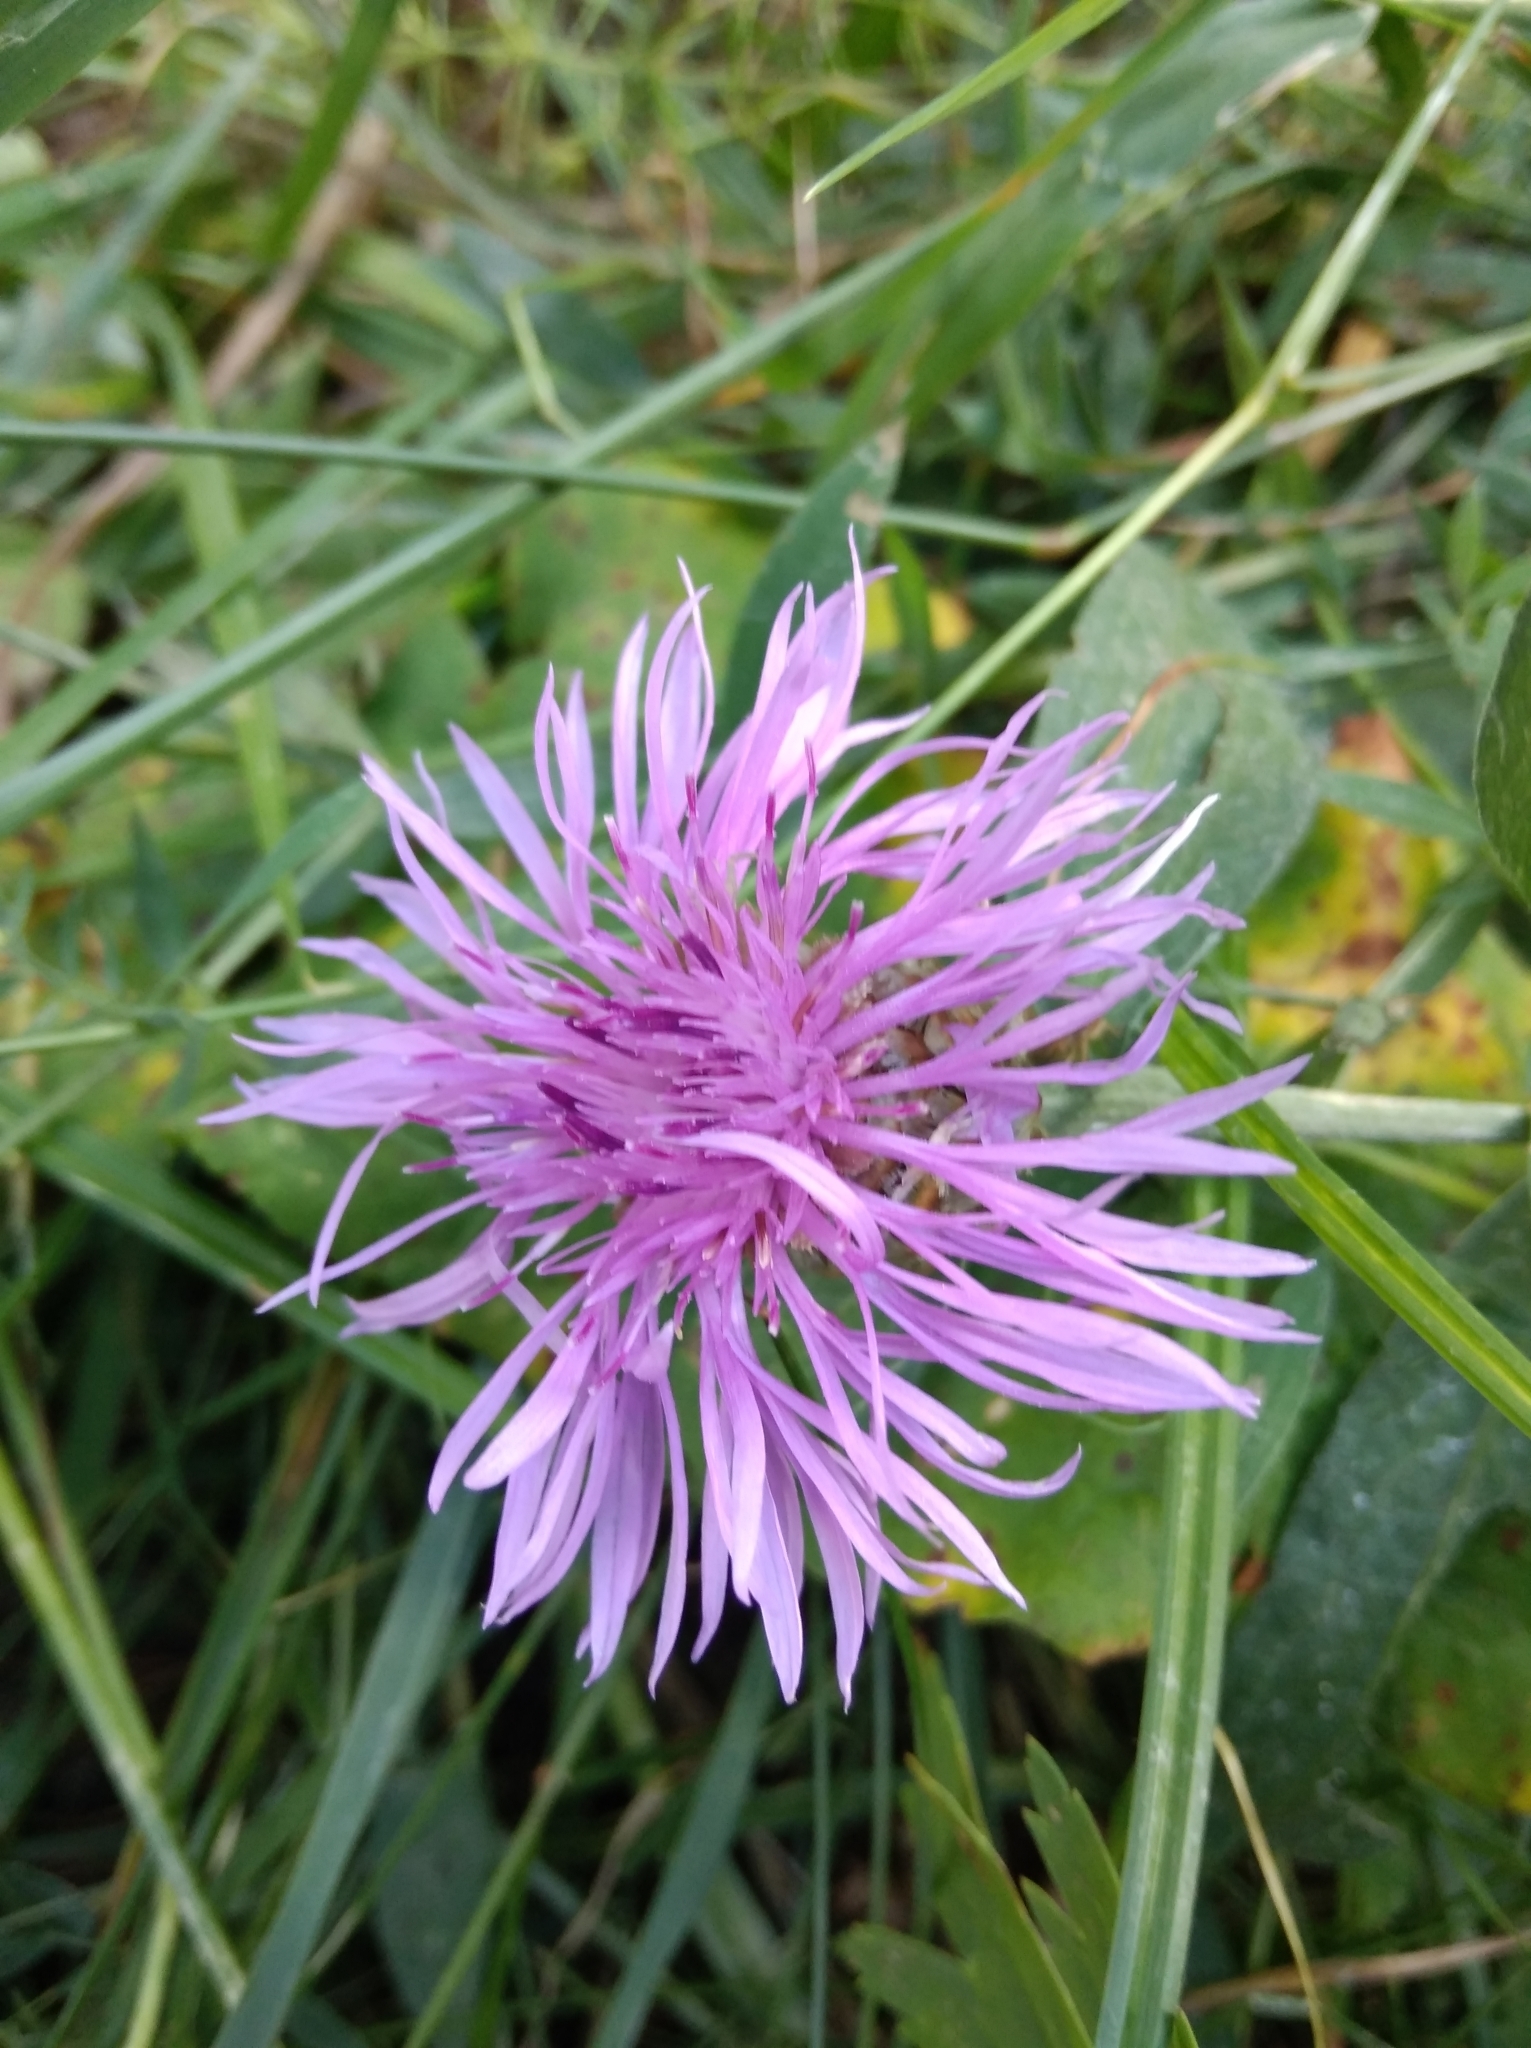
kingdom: Plantae
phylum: Tracheophyta
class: Magnoliopsida
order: Asterales
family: Asteraceae
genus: Centaurea
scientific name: Centaurea jacea
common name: Brown knapweed
